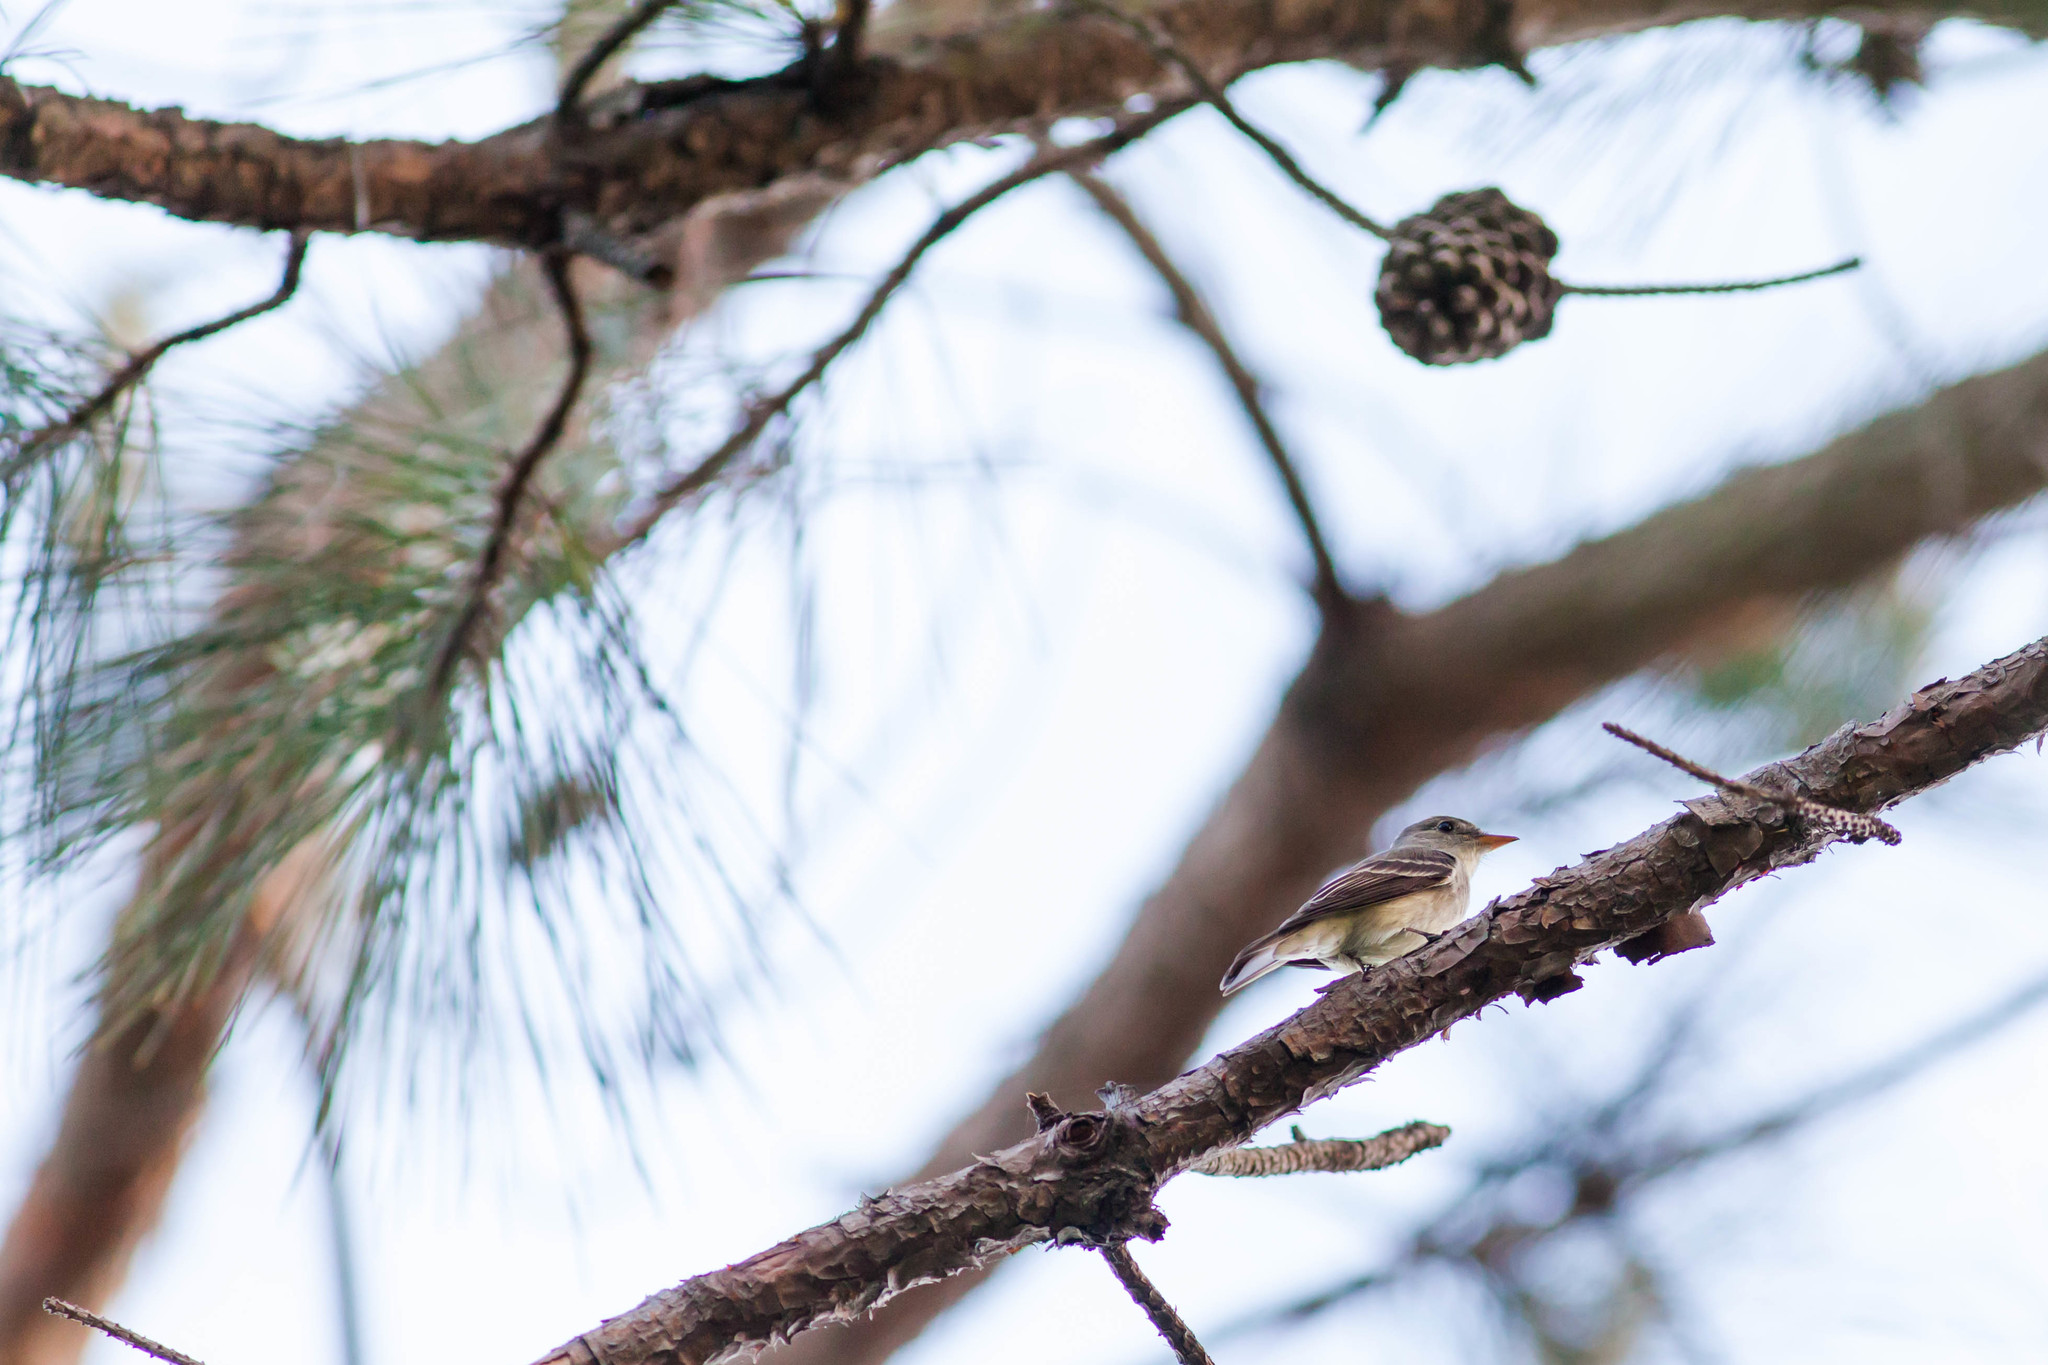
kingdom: Animalia
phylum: Chordata
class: Aves
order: Passeriformes
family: Tyrannidae
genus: Contopus
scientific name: Contopus virens
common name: Eastern wood-pewee
